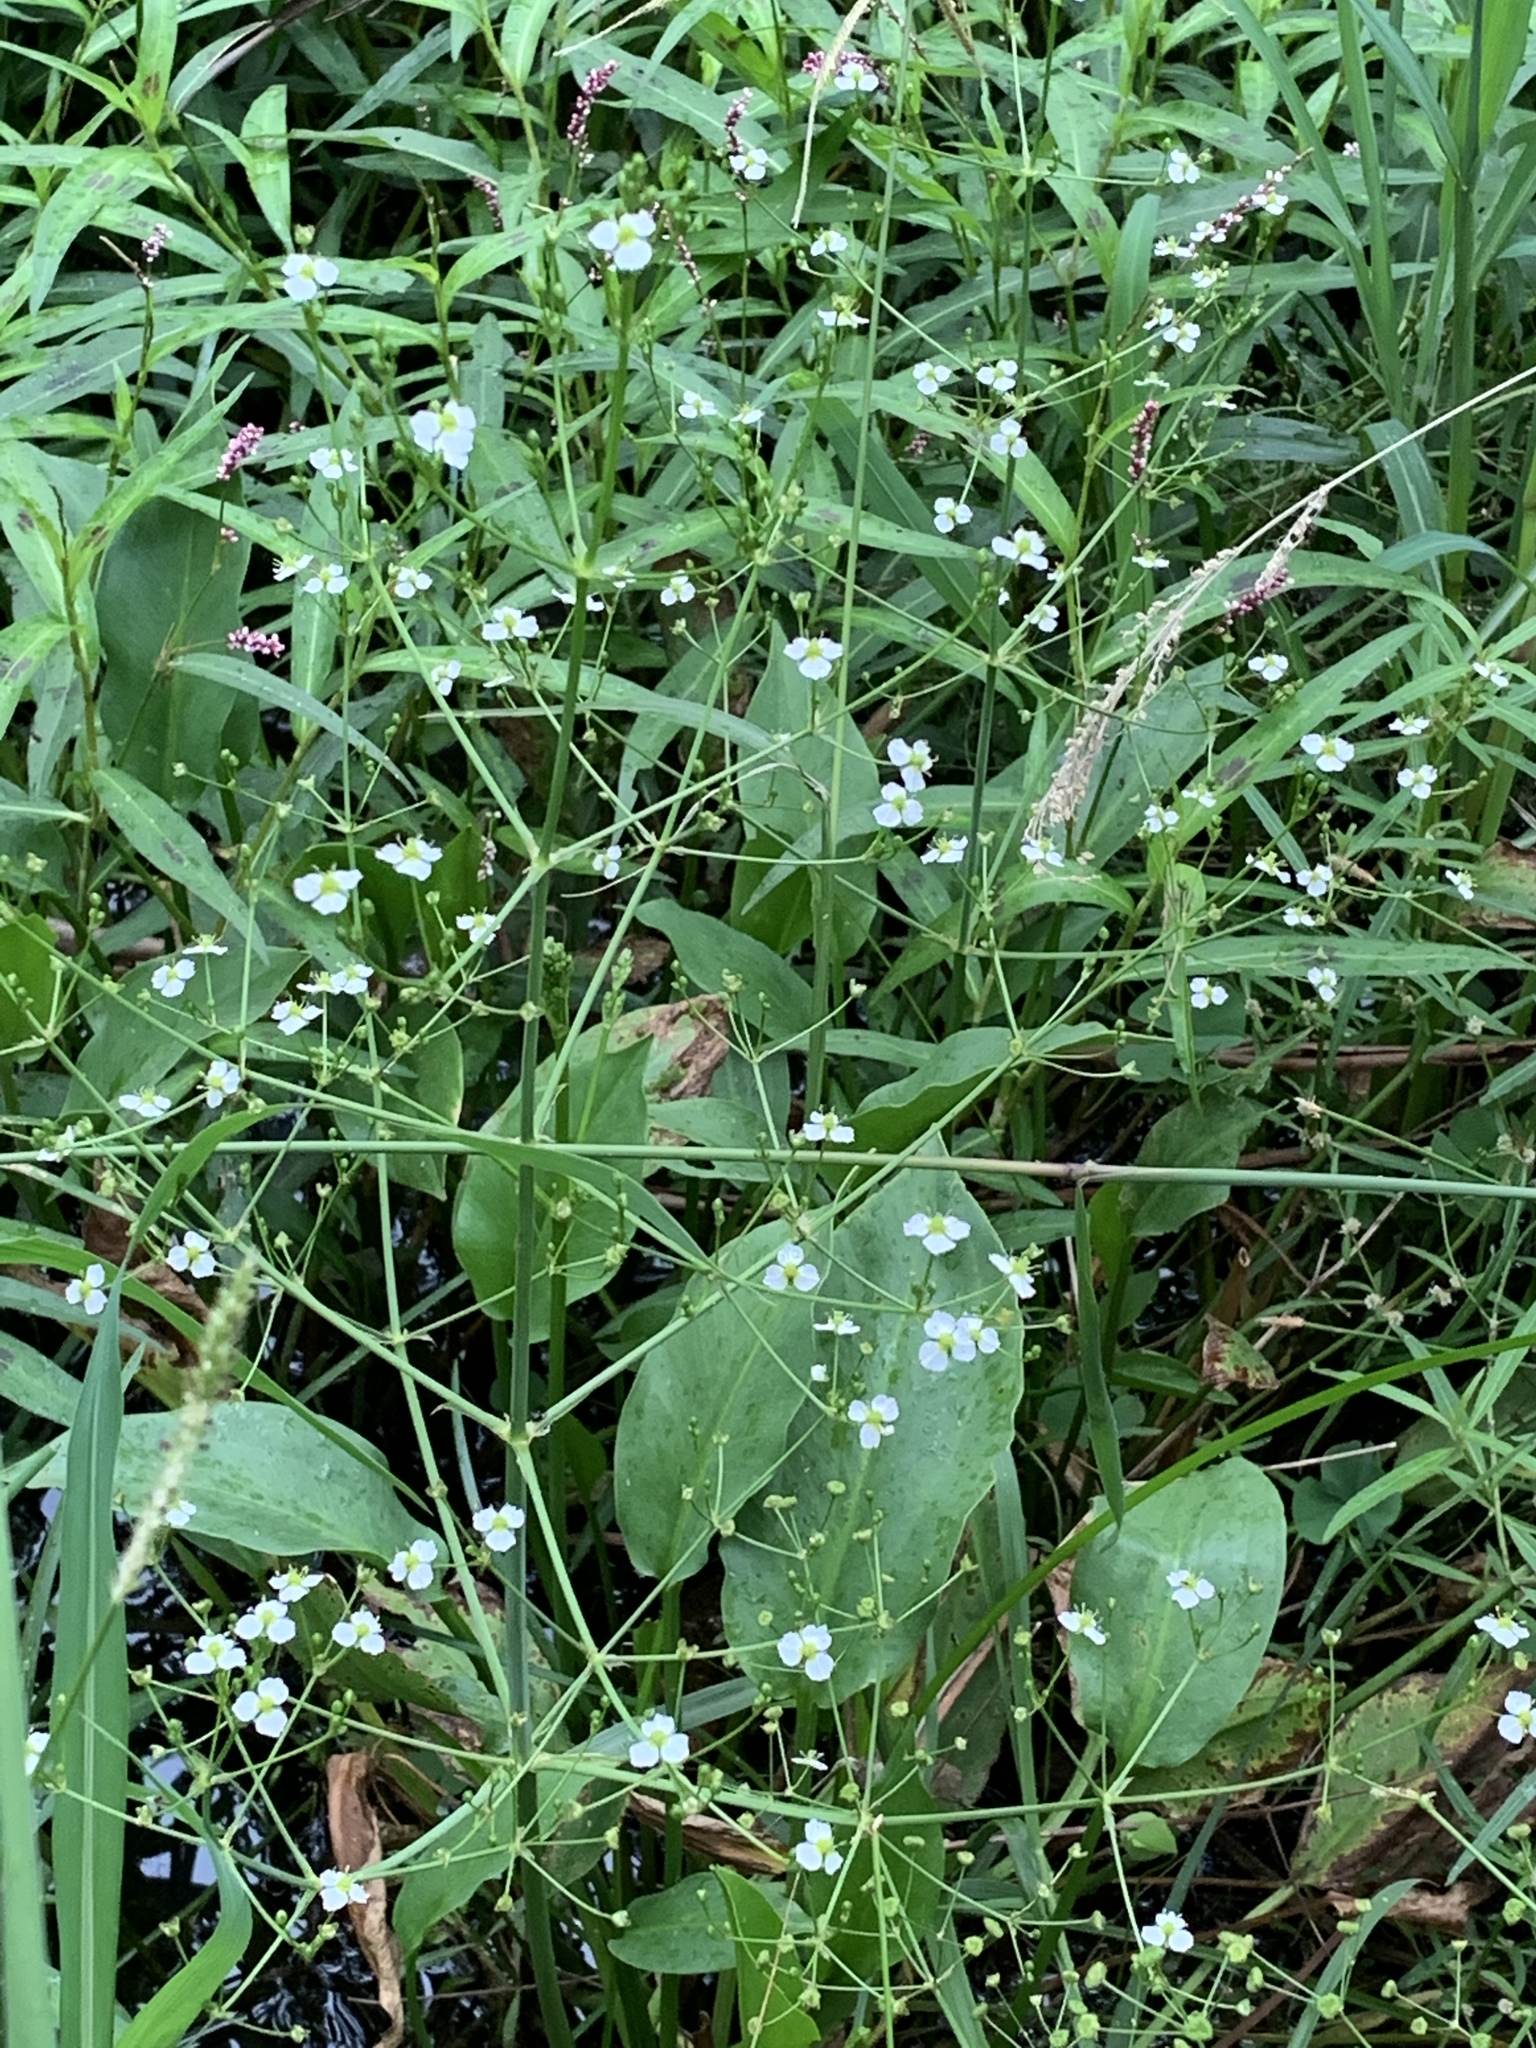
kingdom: Plantae
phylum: Tracheophyta
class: Liliopsida
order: Alismatales
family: Alismataceae
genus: Alisma
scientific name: Alisma plantago-aquatica
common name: Water-plantain
